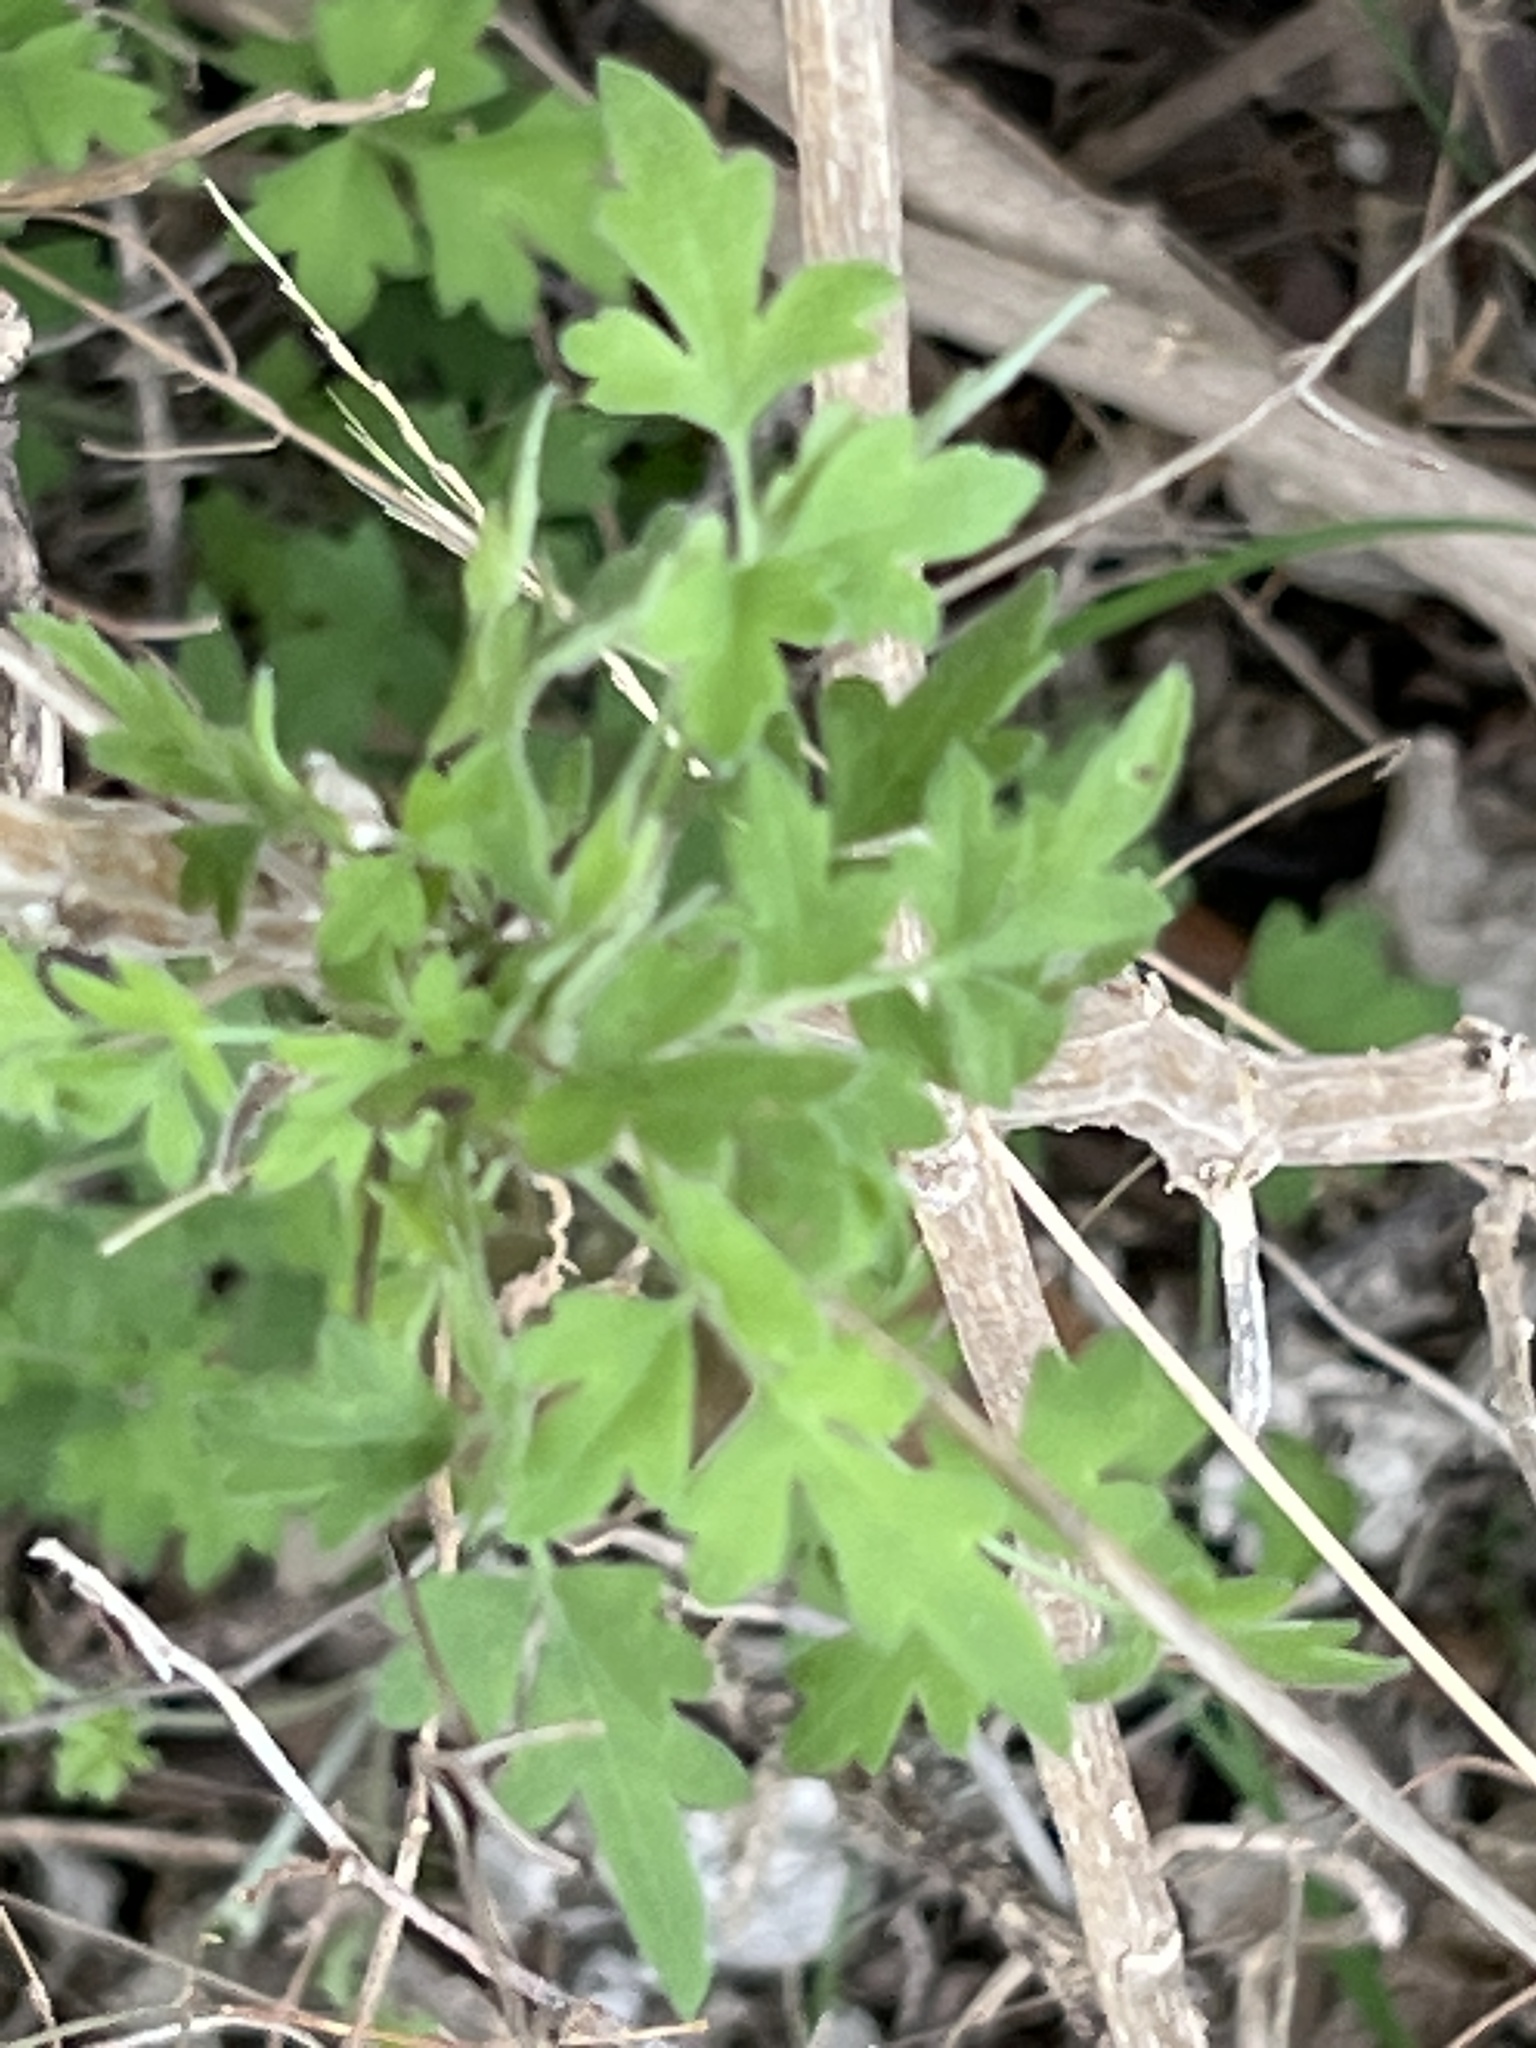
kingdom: Plantae
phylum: Tracheophyta
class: Magnoliopsida
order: Ranunculales
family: Ranunculaceae
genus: Clematis
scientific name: Clematis drummondii
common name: Texas virgin's bower
